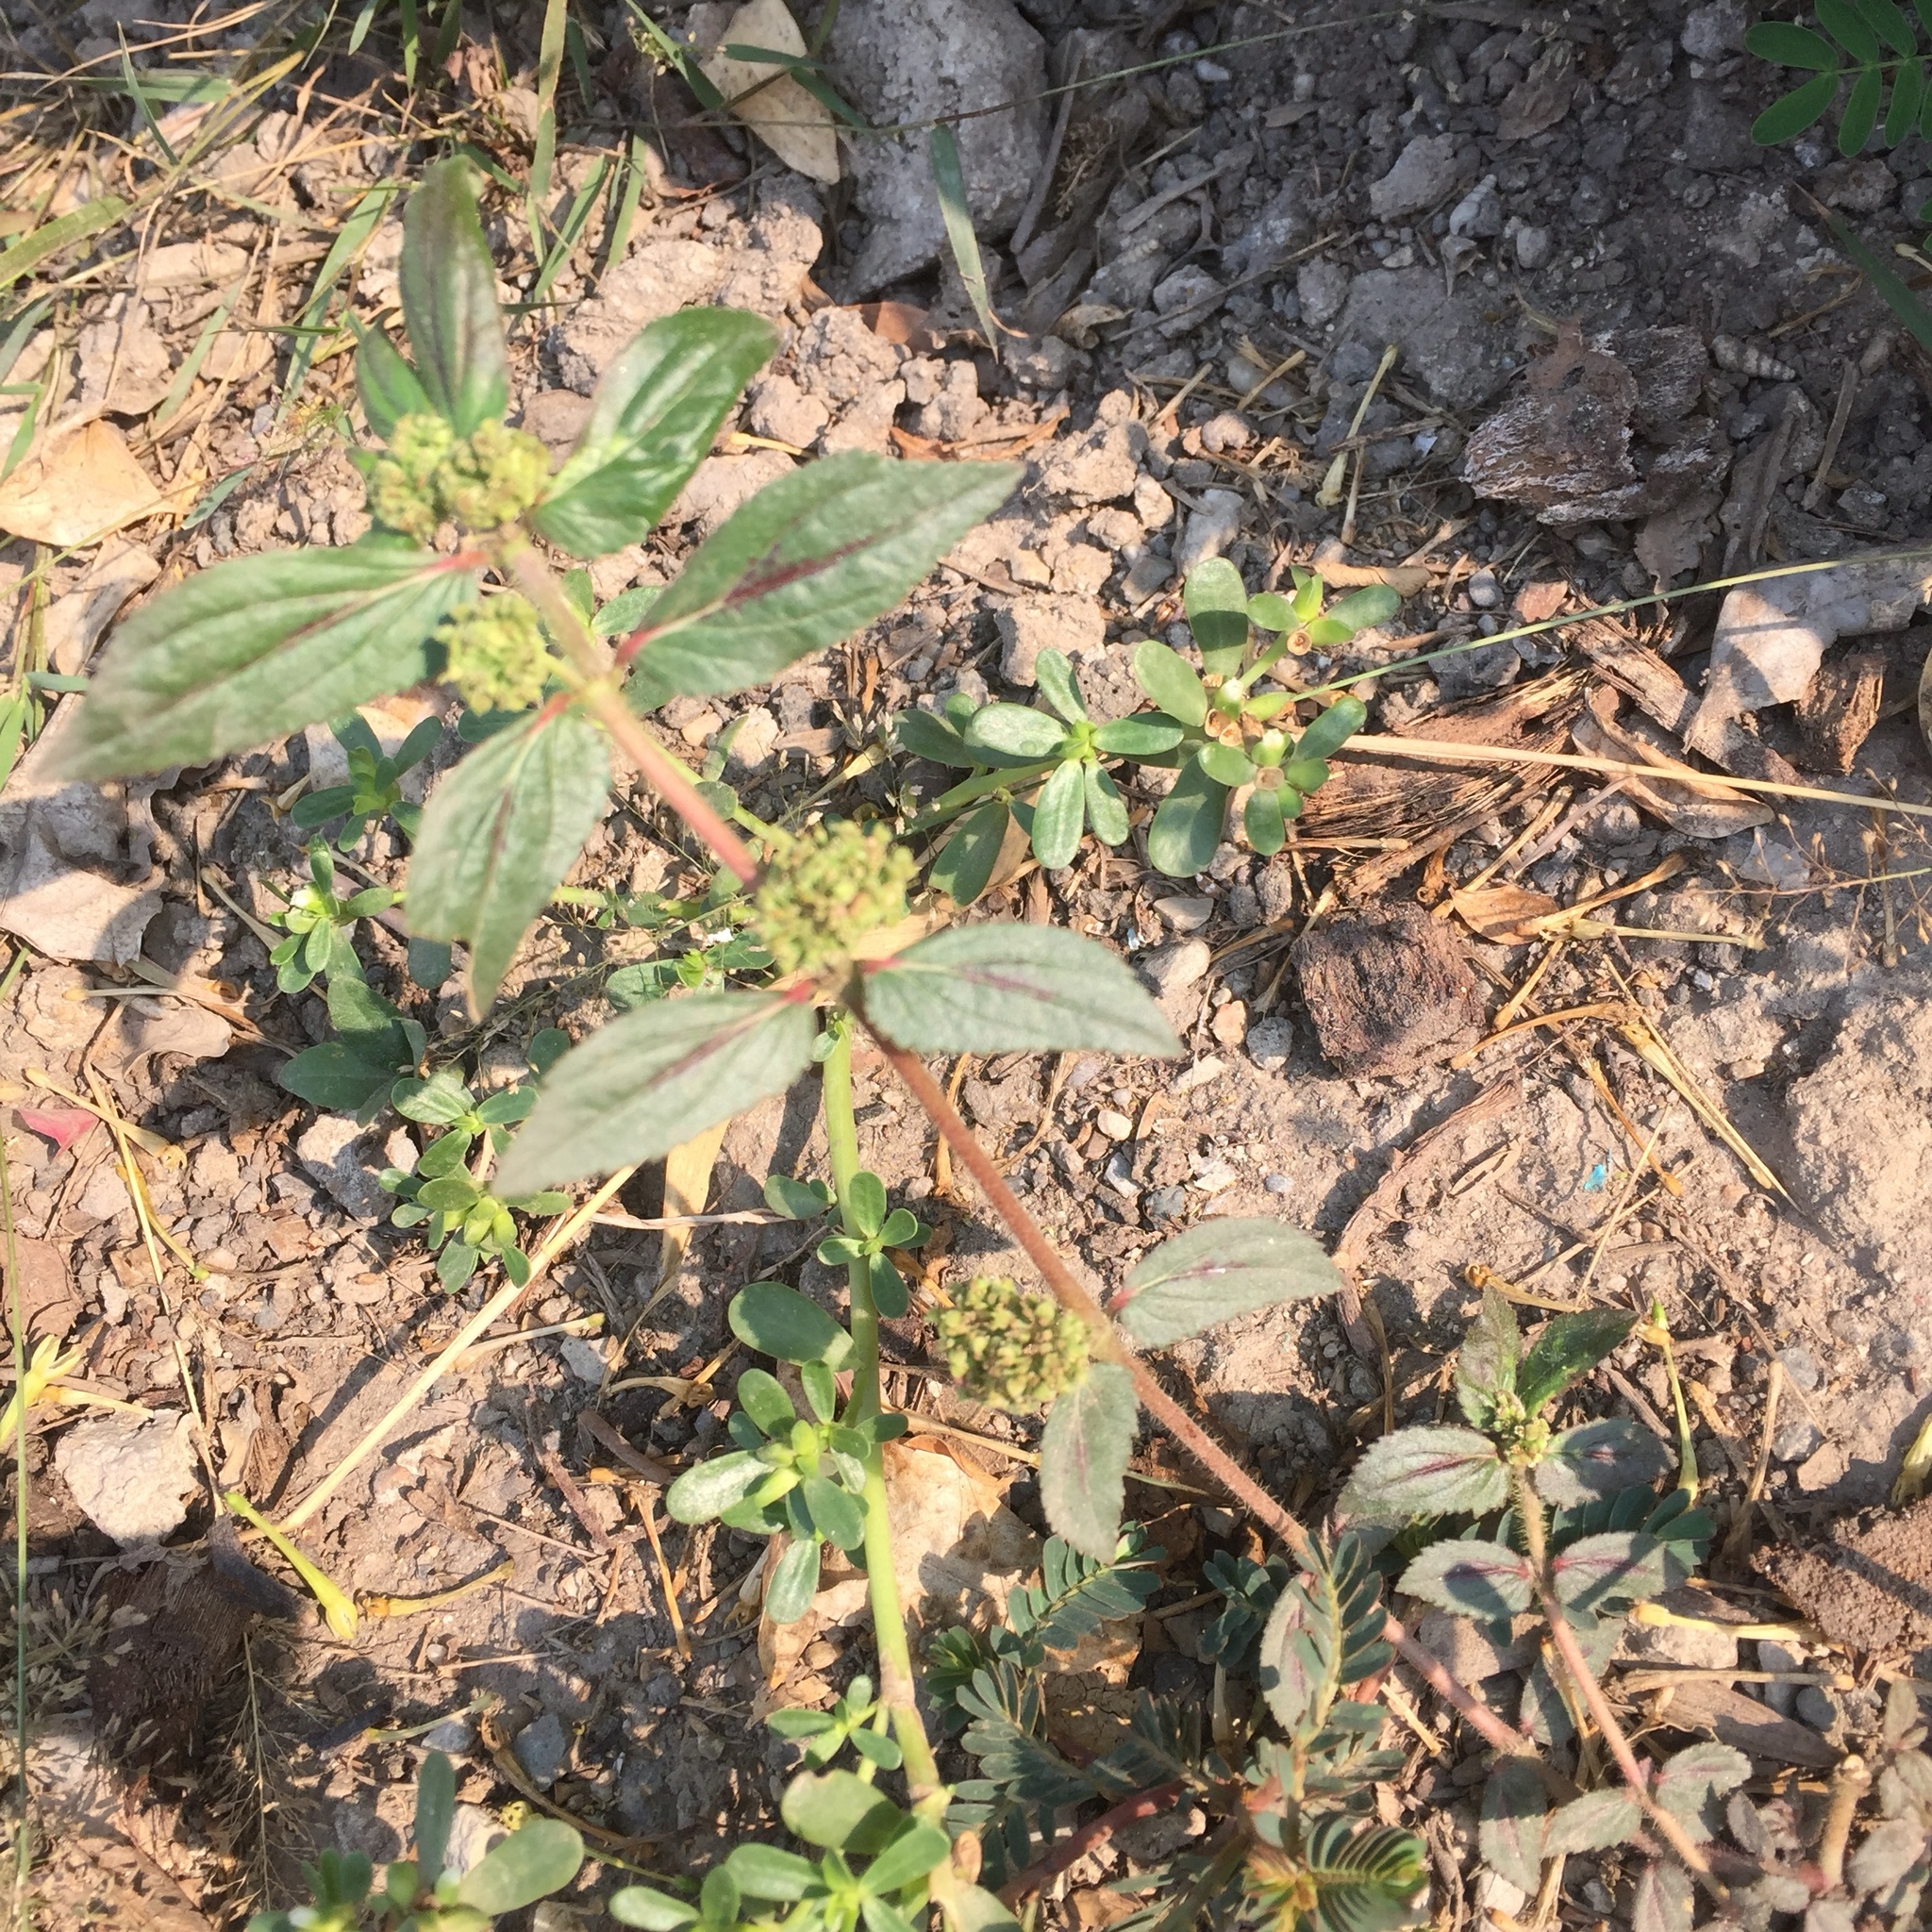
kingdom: Plantae
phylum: Tracheophyta
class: Magnoliopsida
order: Malpighiales
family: Euphorbiaceae
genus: Euphorbia
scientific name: Euphorbia hirta
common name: Pillpod sandmat
